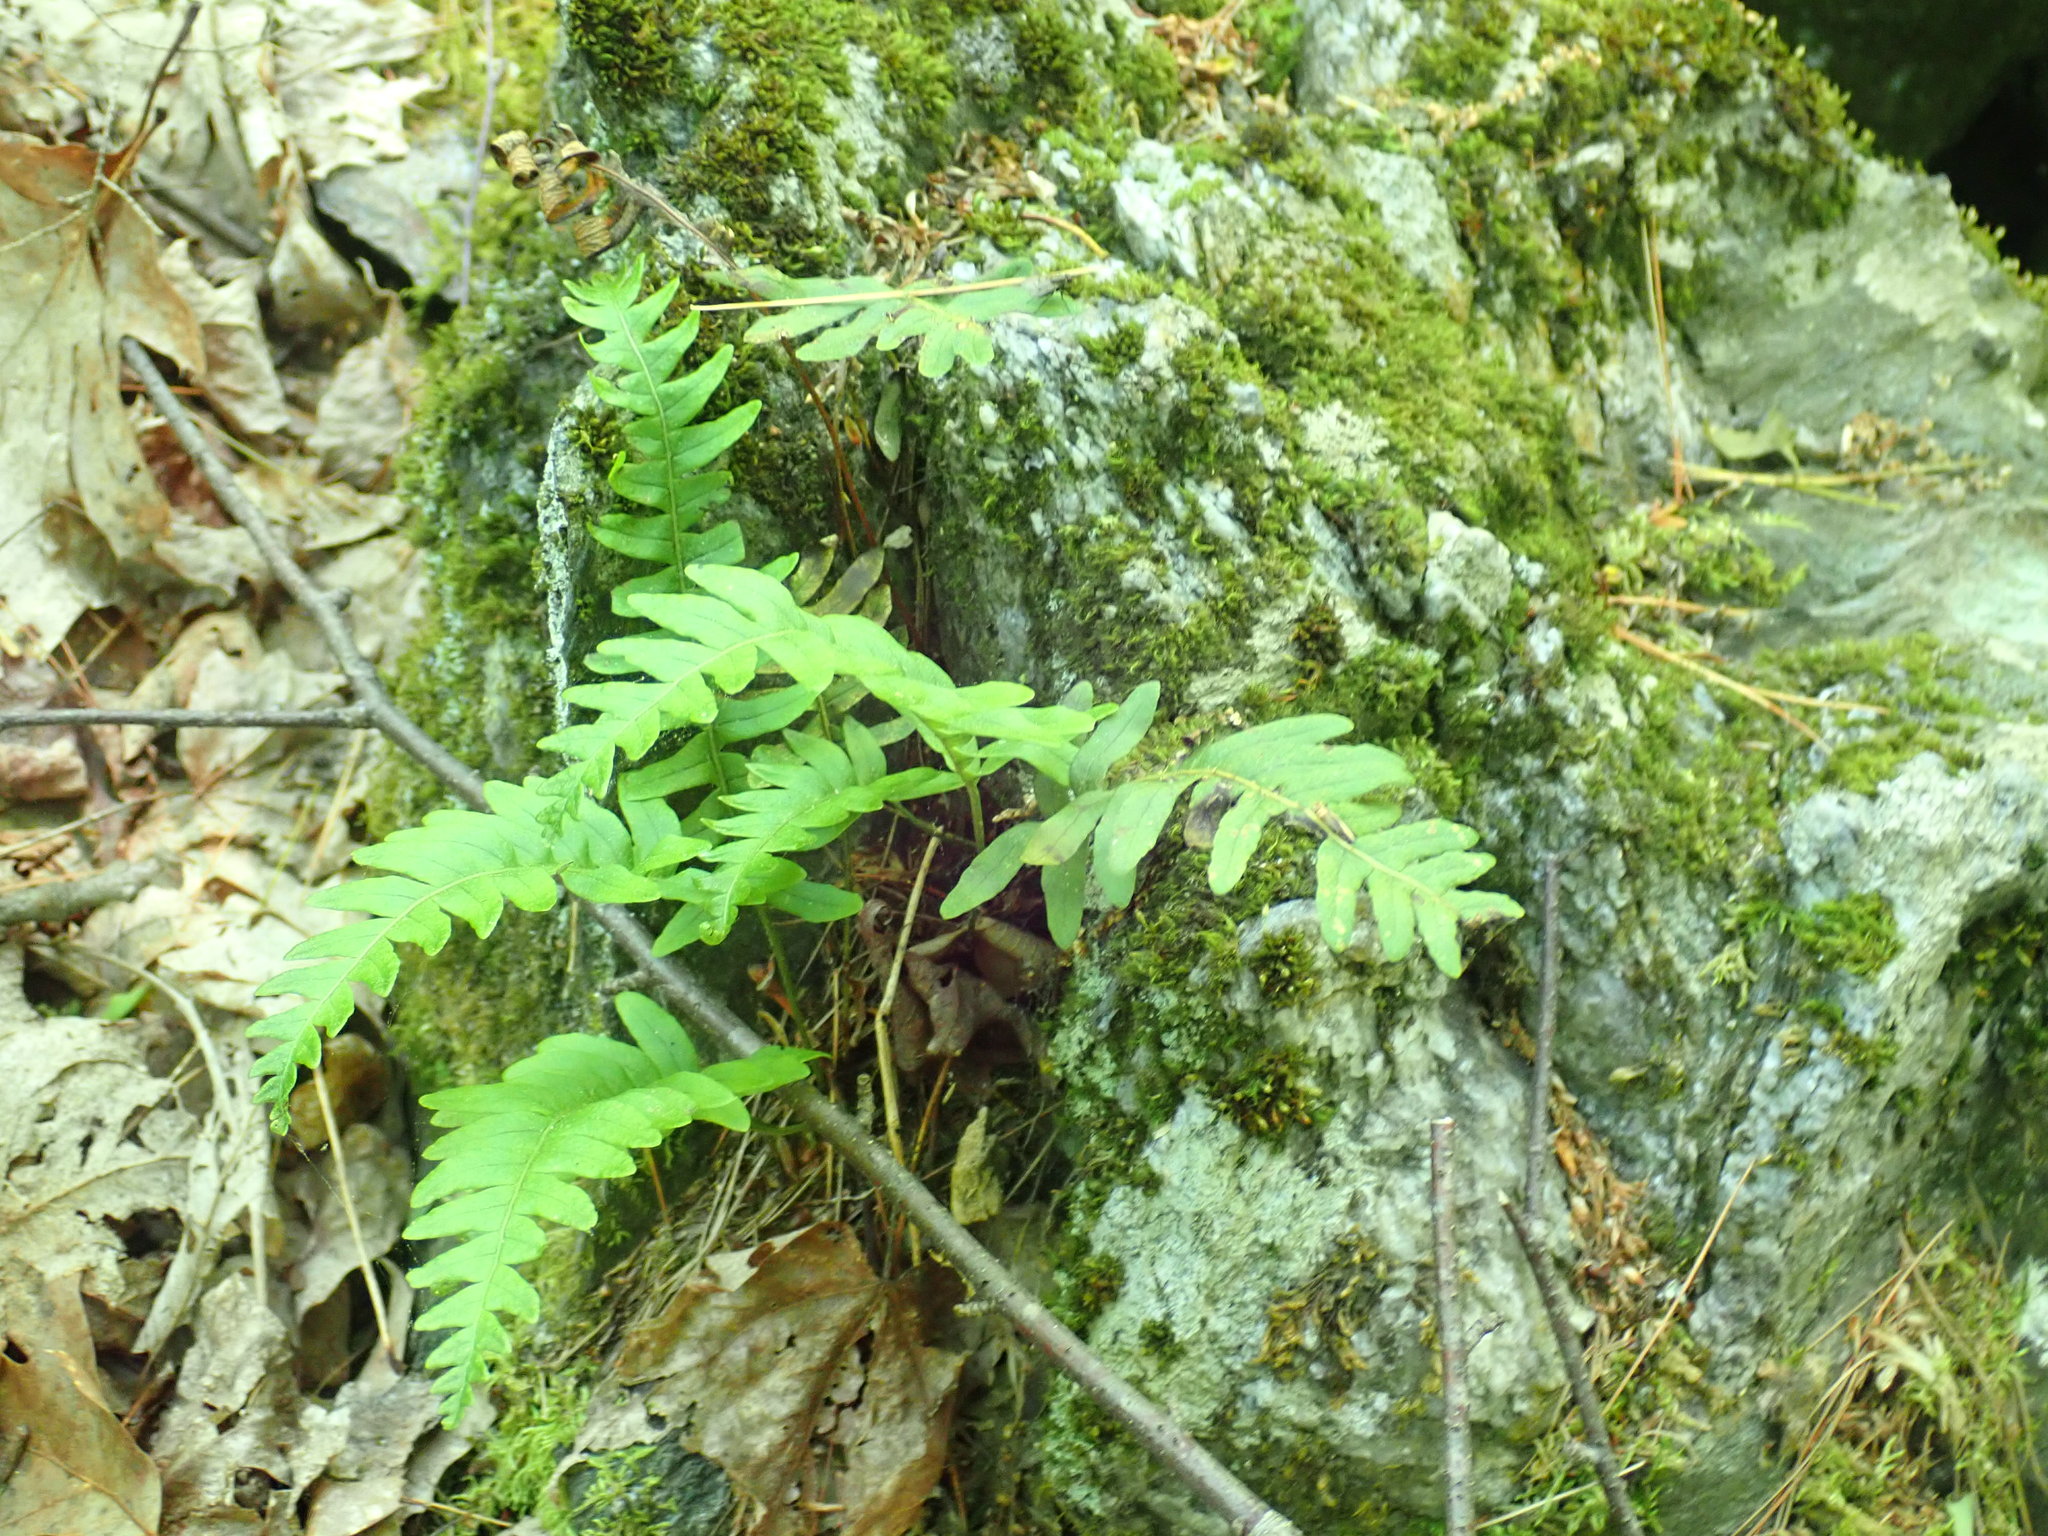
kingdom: Plantae
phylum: Tracheophyta
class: Polypodiopsida
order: Polypodiales
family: Polypodiaceae
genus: Polypodium
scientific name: Polypodium
